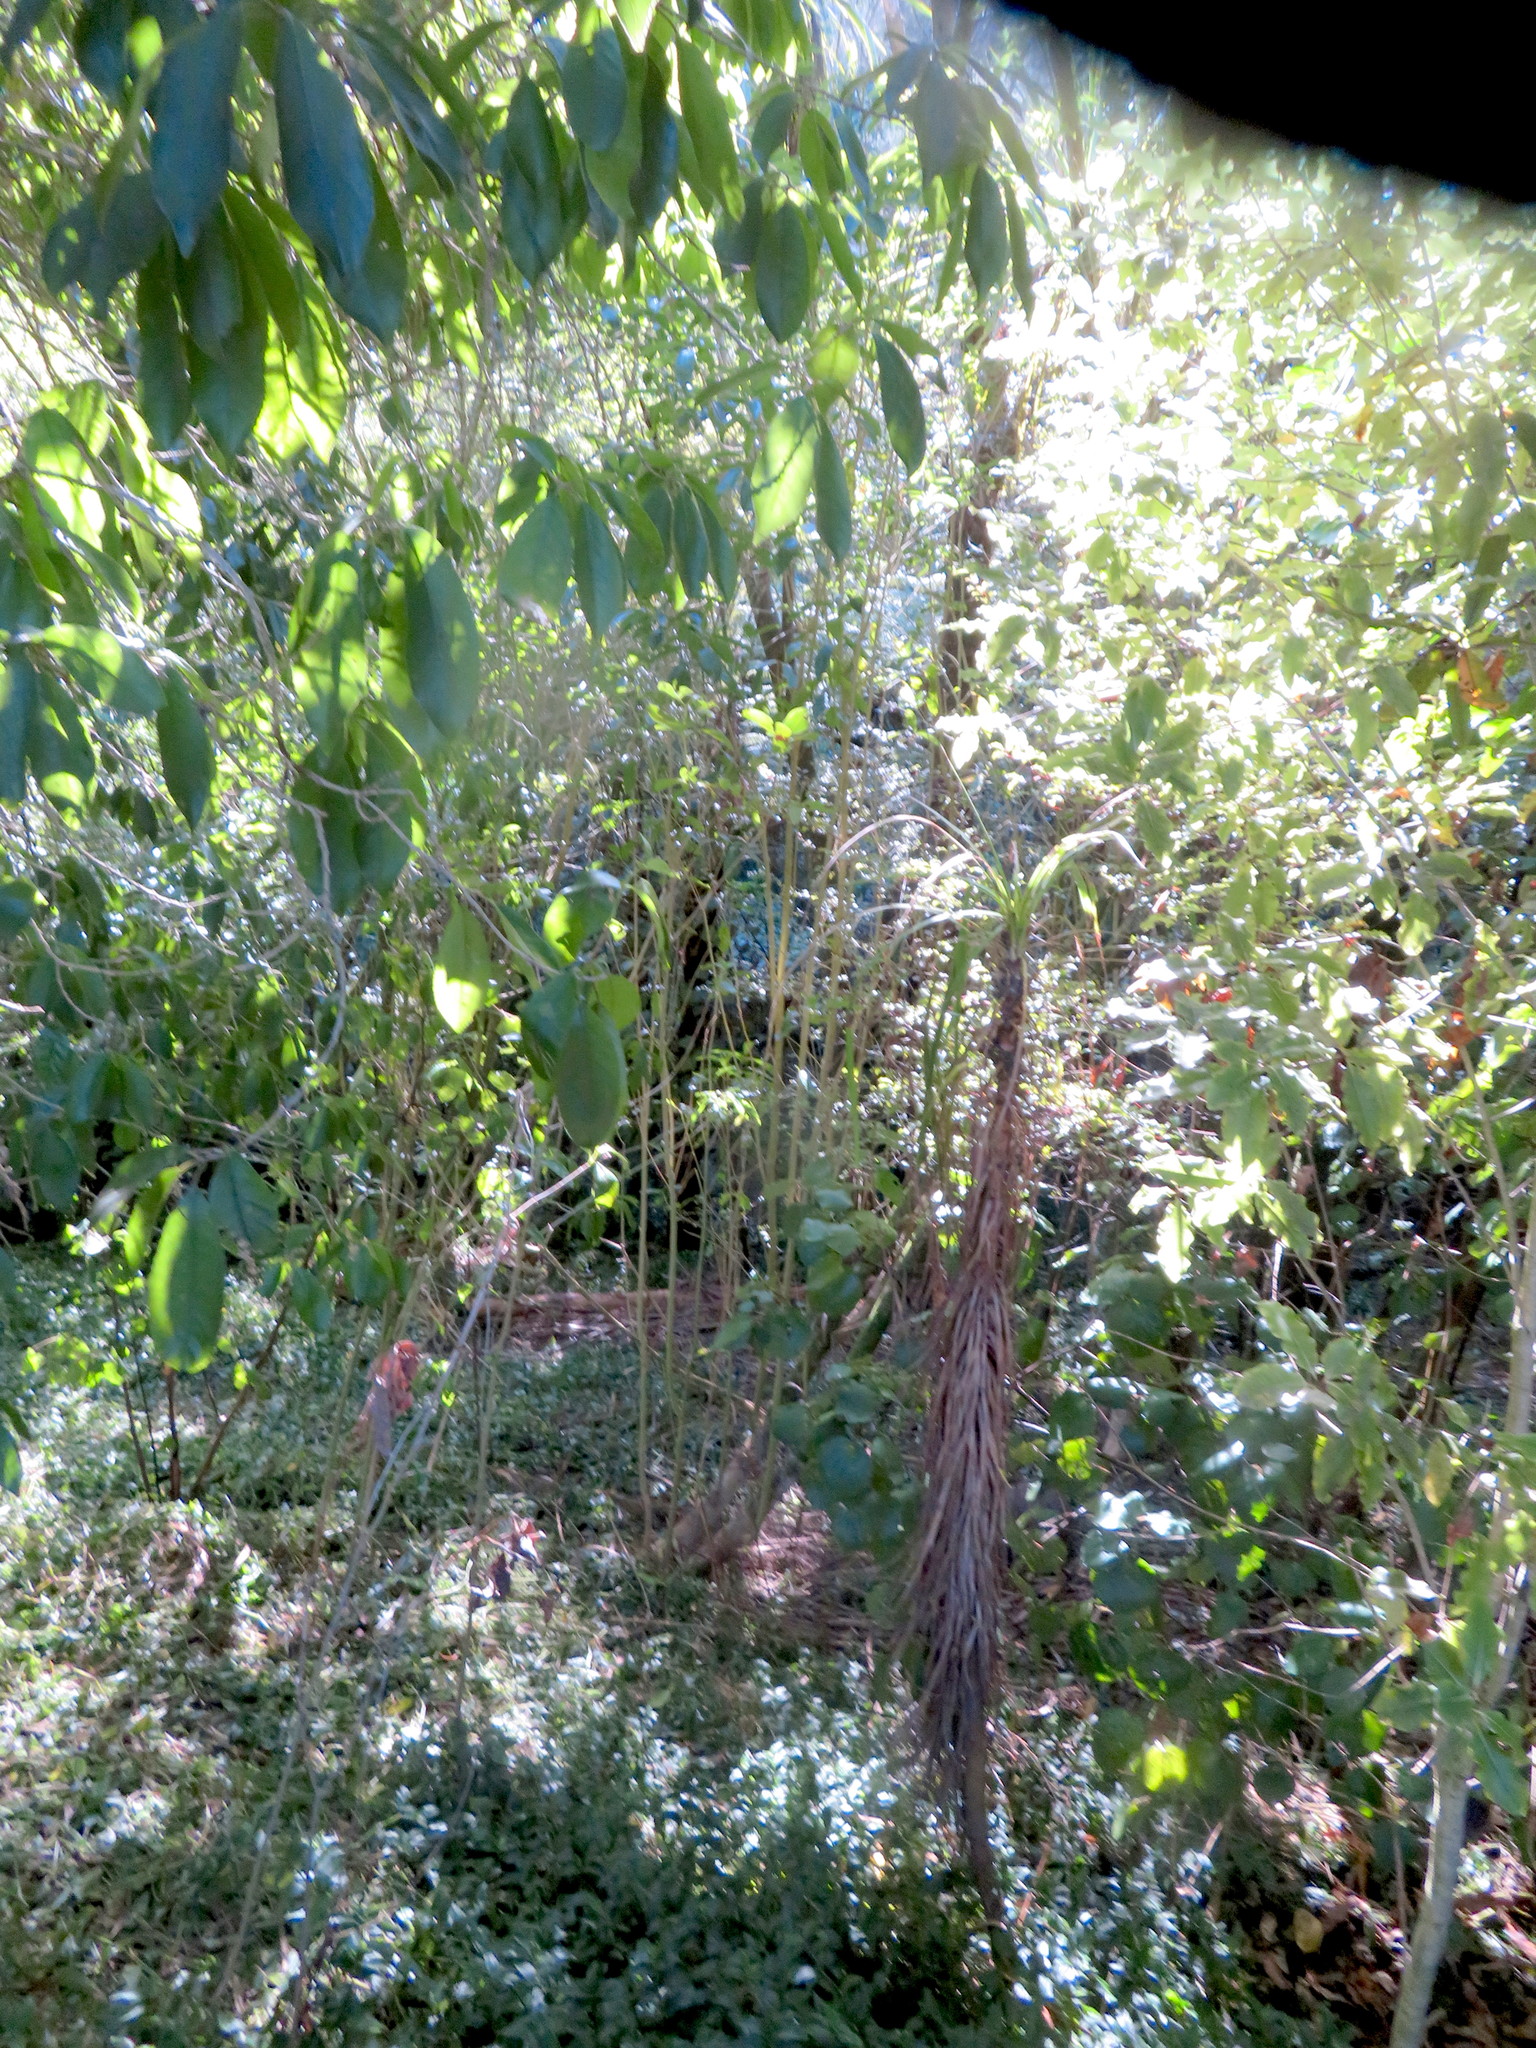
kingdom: Plantae
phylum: Tracheophyta
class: Liliopsida
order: Asparagales
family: Asparagaceae
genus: Cordyline
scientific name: Cordyline australis
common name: Cabbage-palm
